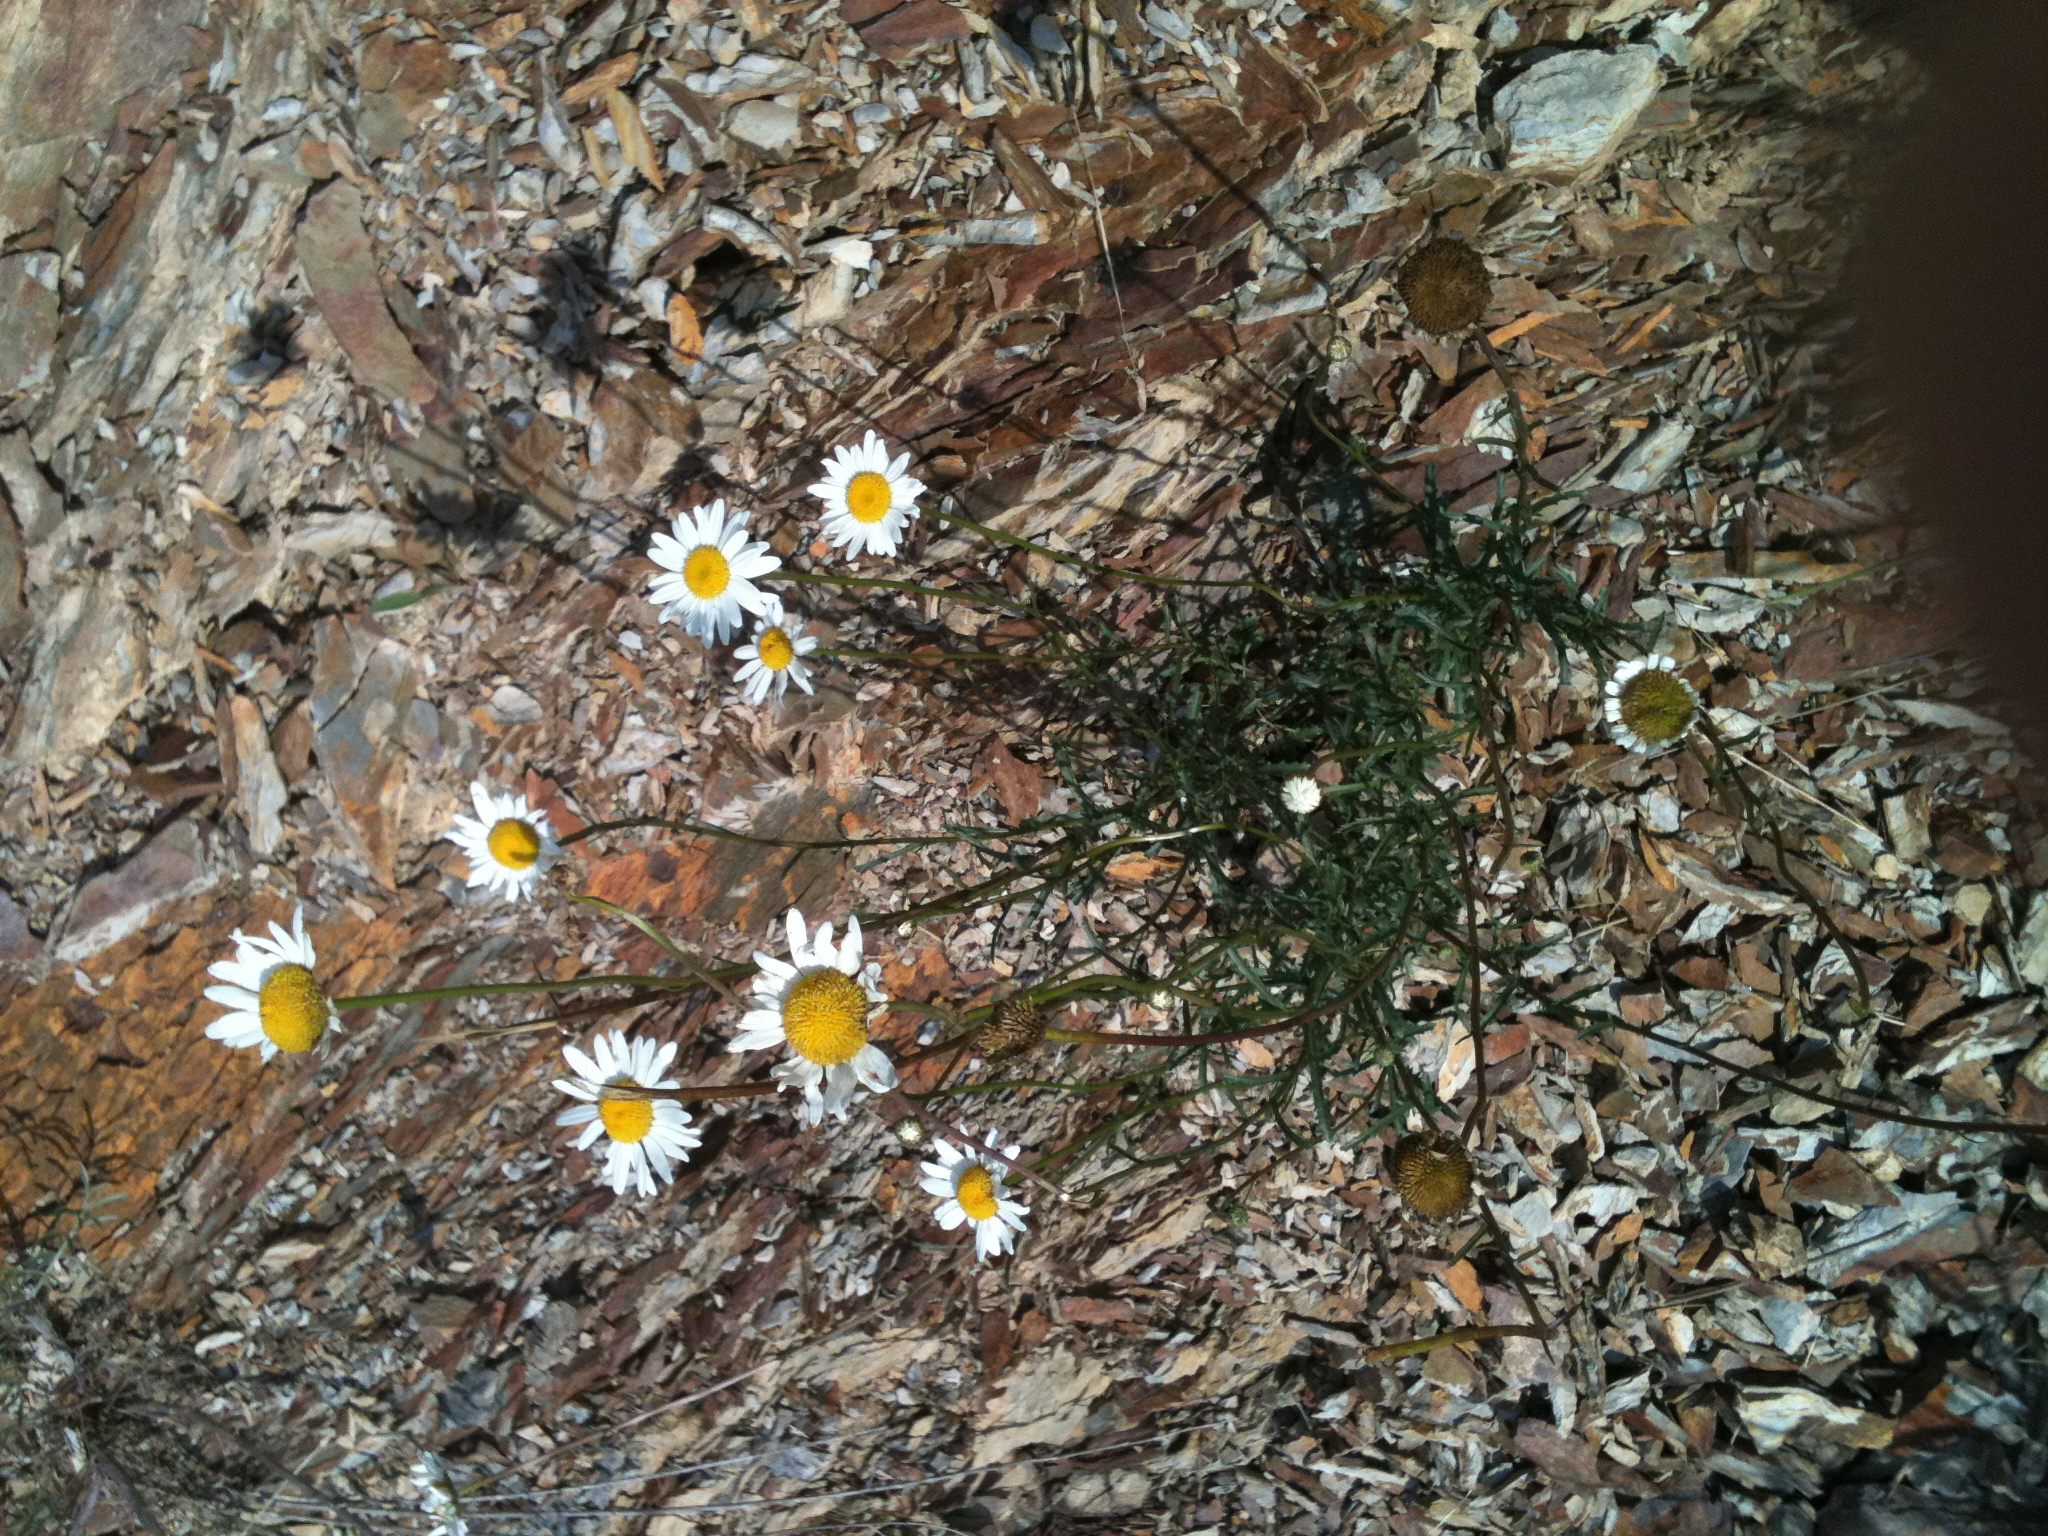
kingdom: Plantae
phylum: Tracheophyta
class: Magnoliopsida
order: Asterales
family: Asteraceae
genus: Leucanthemum
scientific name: Leucanthemum vulgare
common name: Oxeye daisy
